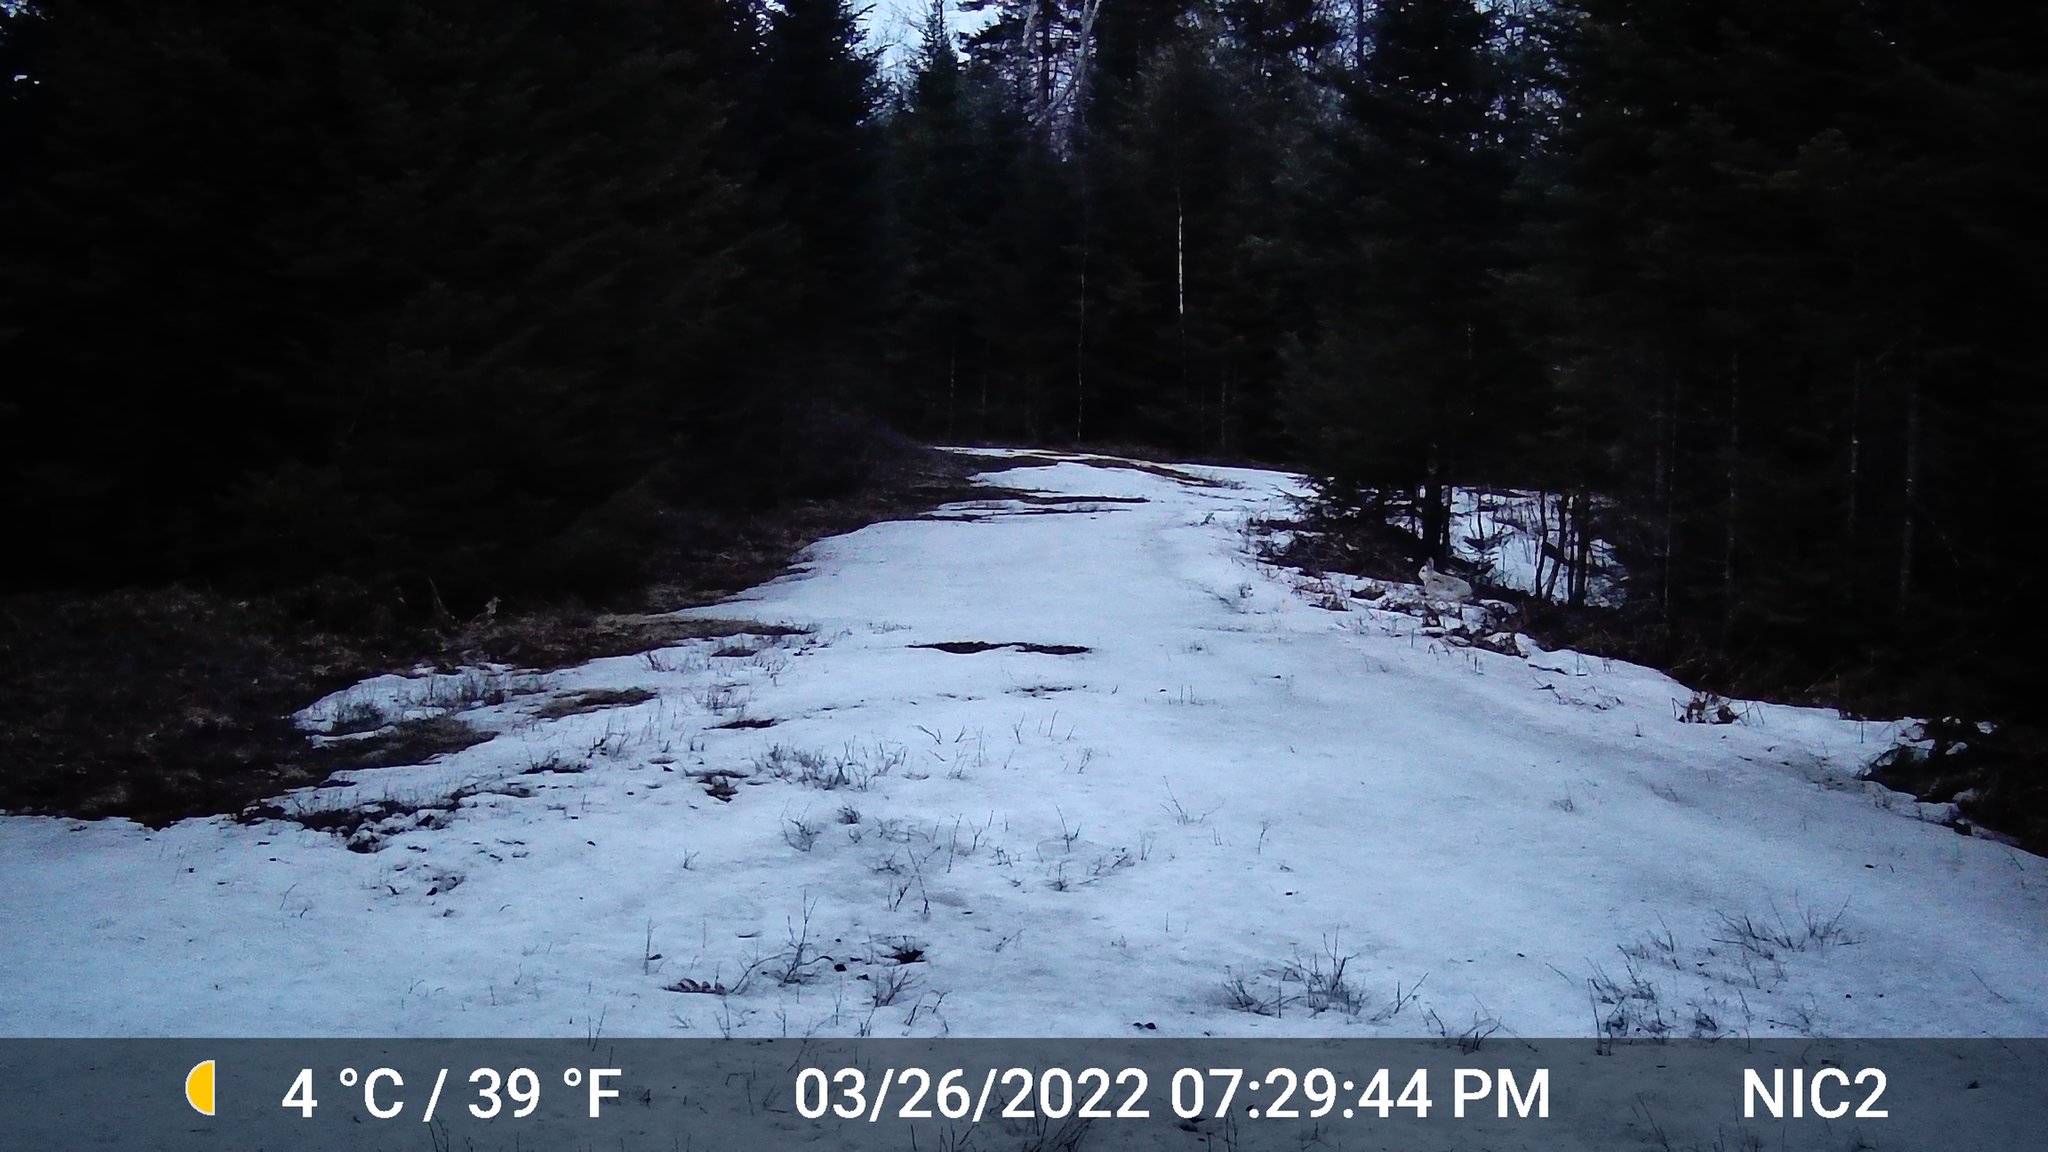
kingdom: Animalia
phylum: Chordata
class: Mammalia
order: Lagomorpha
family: Leporidae
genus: Lepus
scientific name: Lepus americanus
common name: Snowshoe hare
